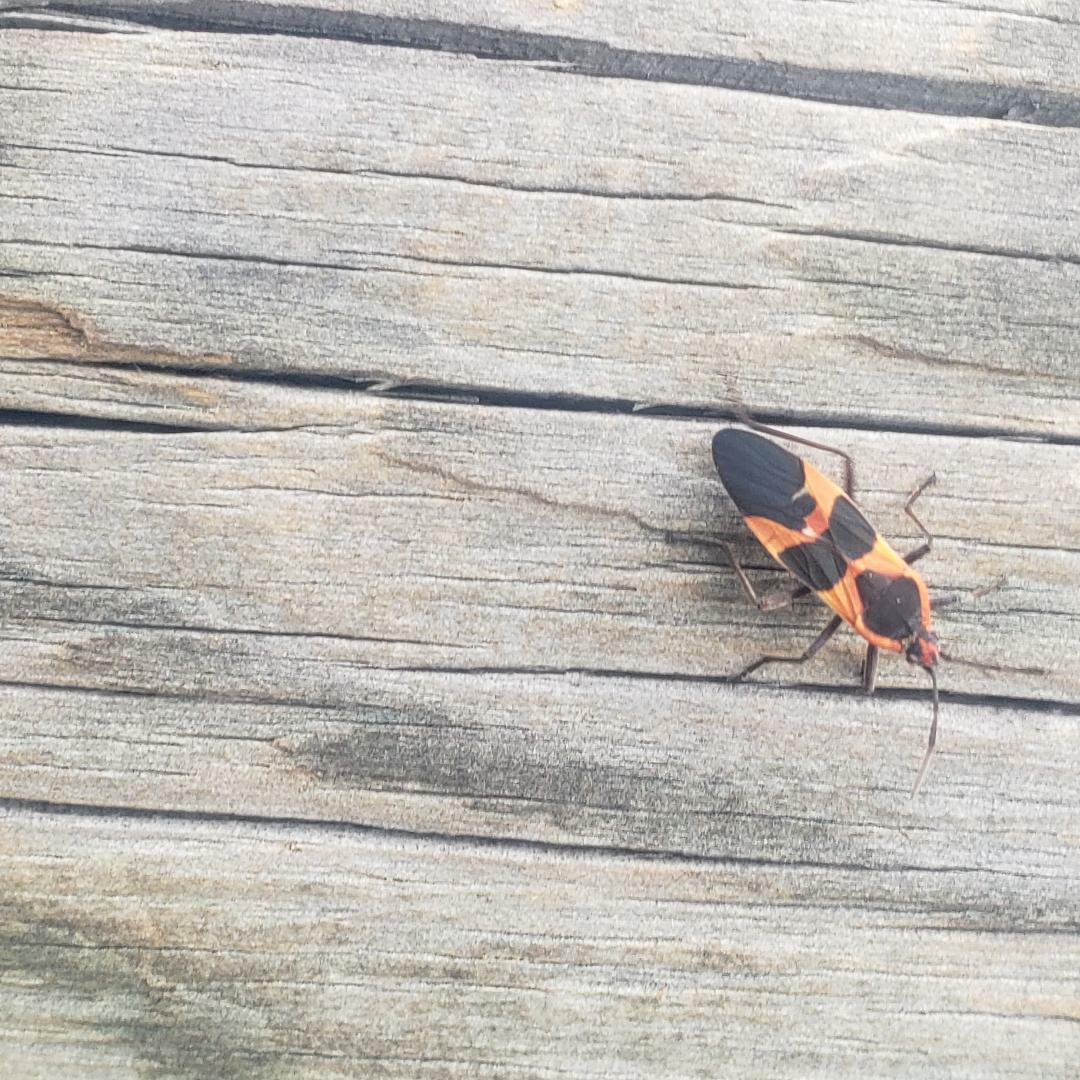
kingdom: Animalia
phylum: Arthropoda
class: Insecta
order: Hemiptera
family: Lygaeidae
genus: Oncopeltus
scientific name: Oncopeltus fasciatus
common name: Large milkweed bug
